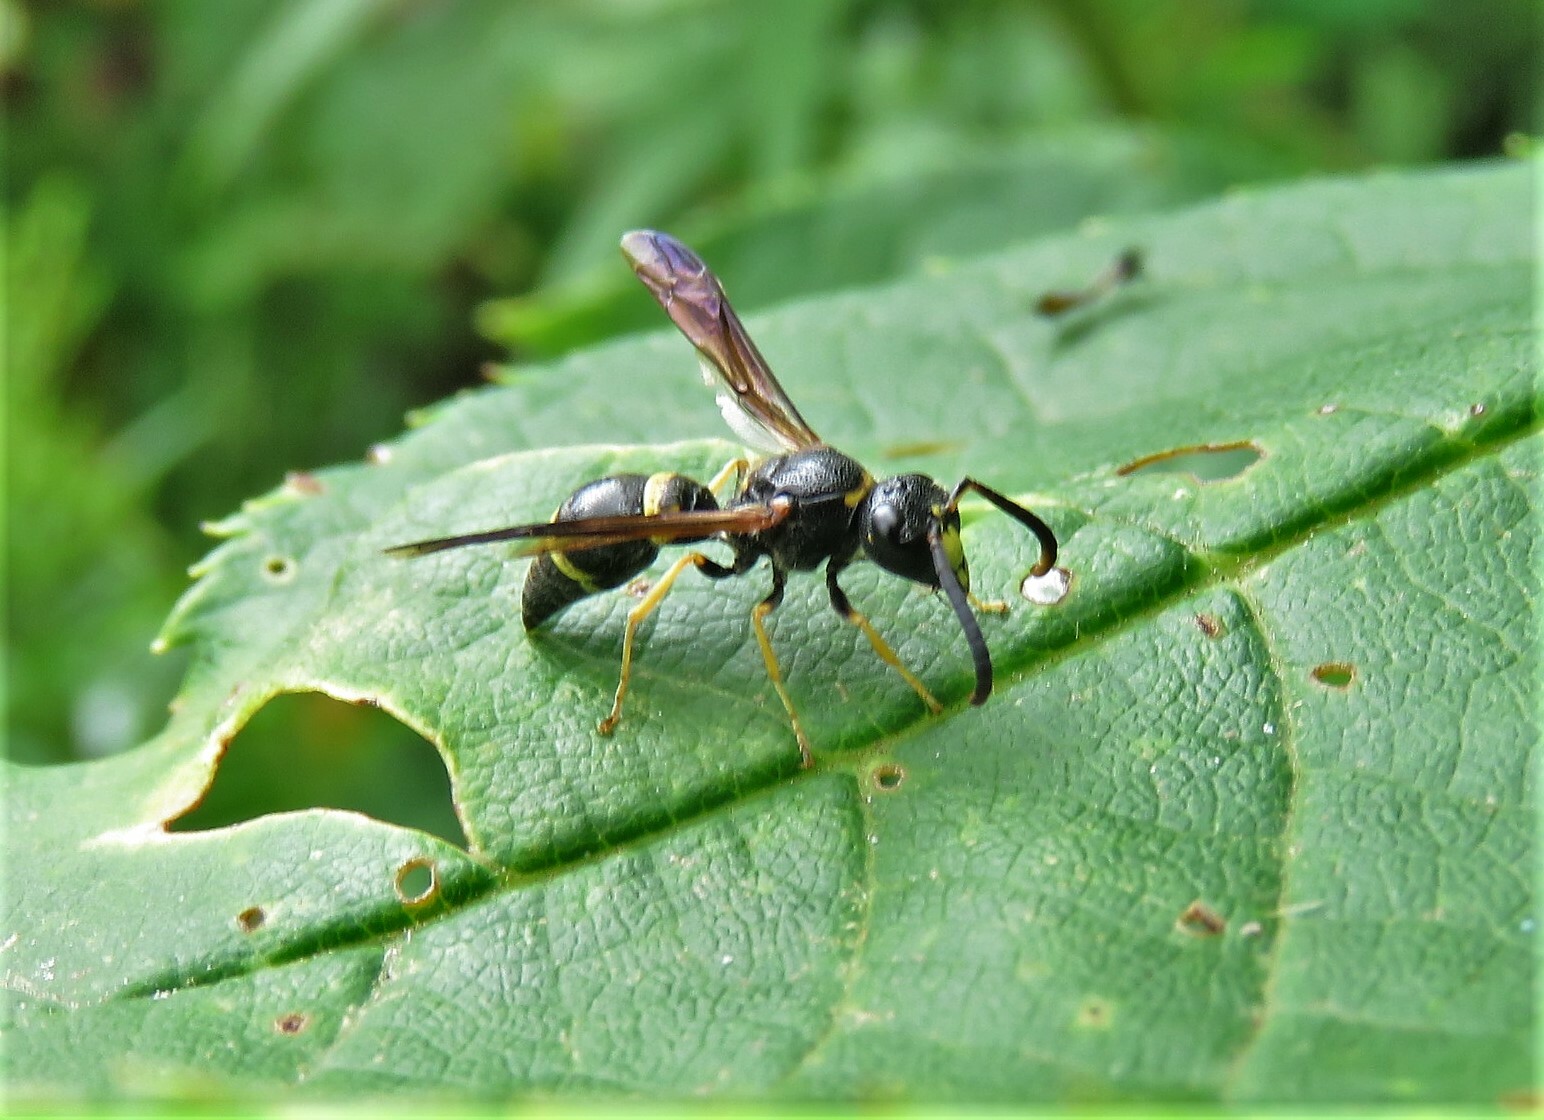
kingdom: Animalia
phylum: Arthropoda
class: Insecta
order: Hymenoptera
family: Vespidae
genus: Ancistrocerus
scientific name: Ancistrocerus unifasciatus
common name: One-banded mason wasp
